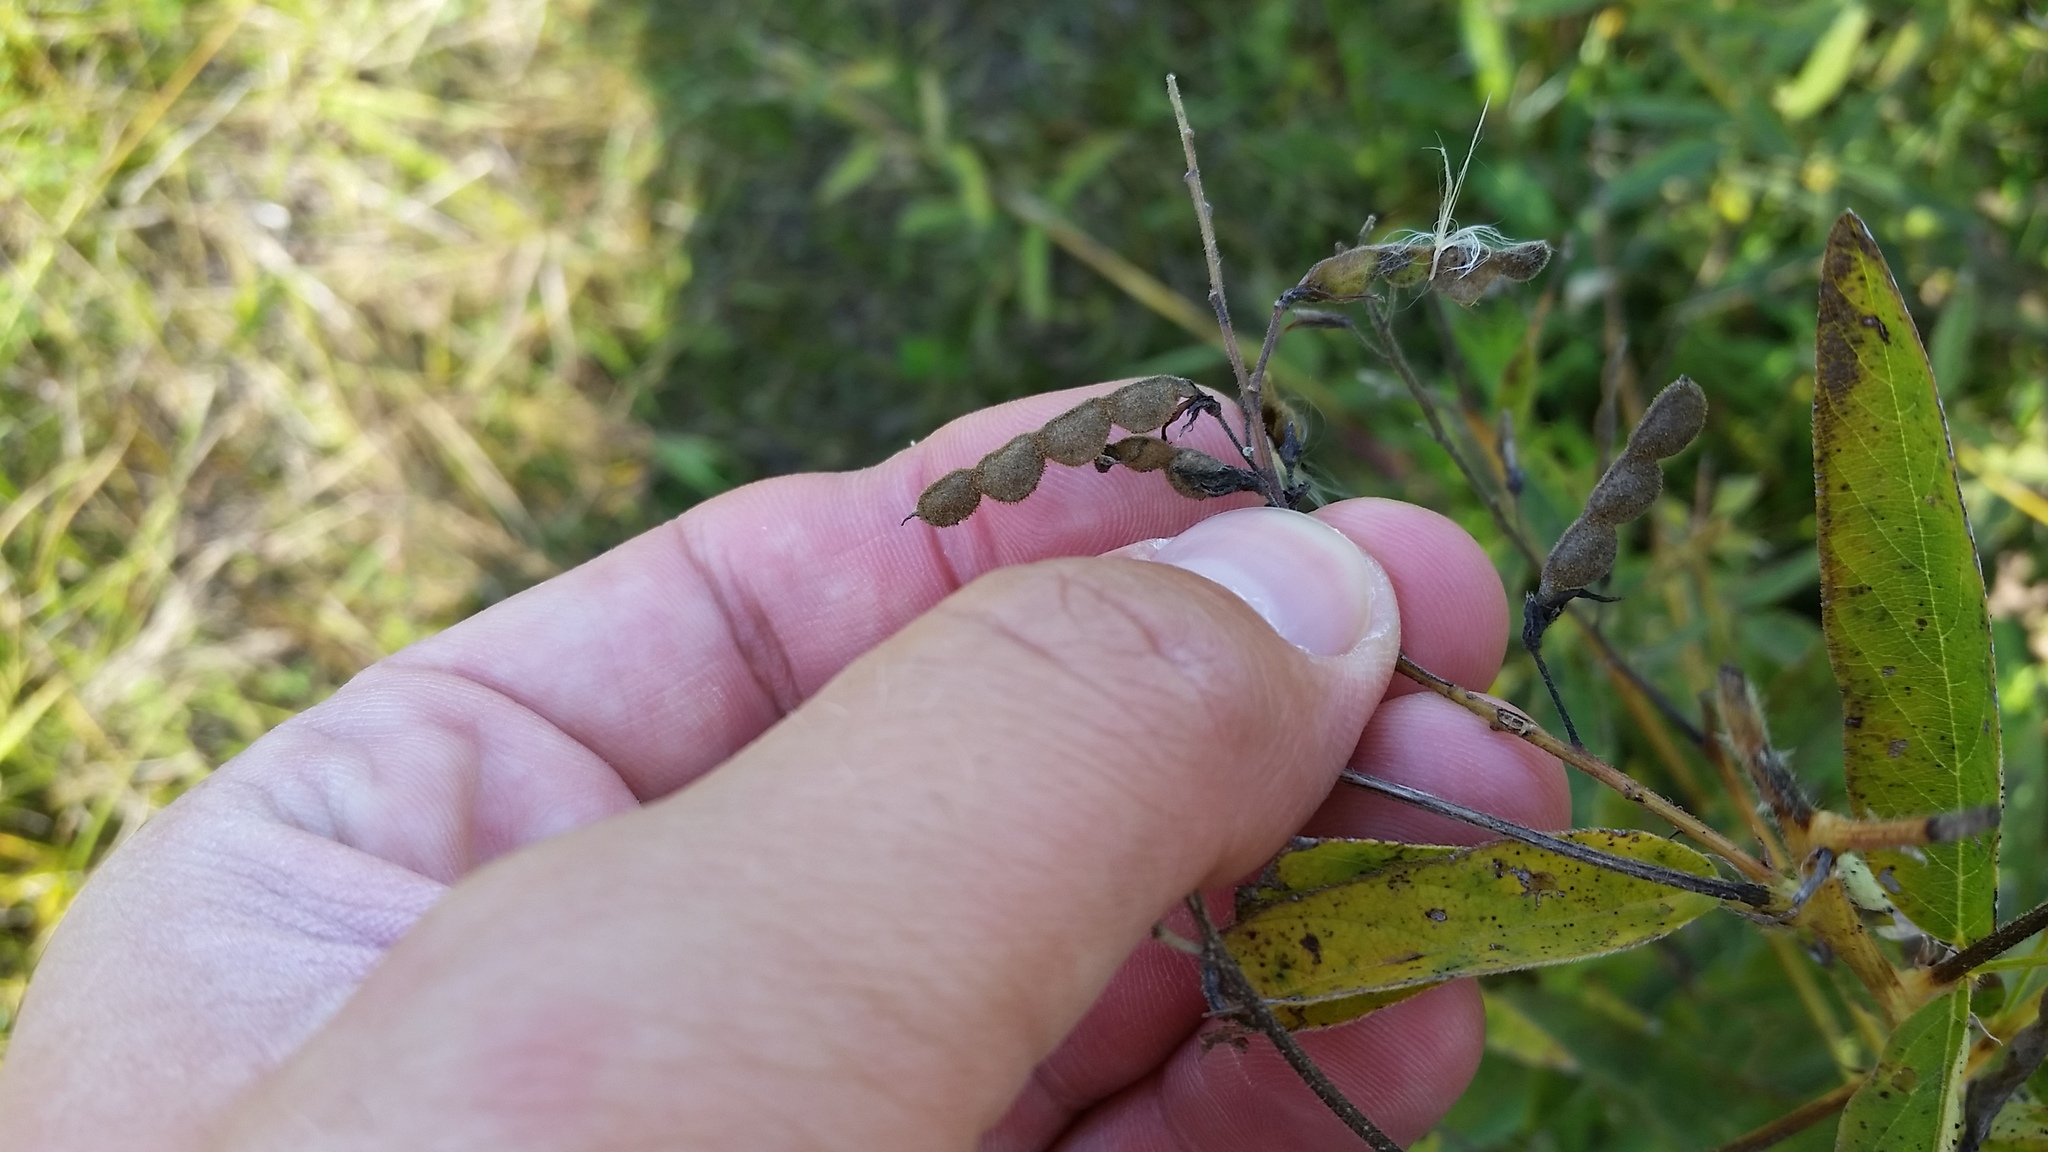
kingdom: Plantae
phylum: Tracheophyta
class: Magnoliopsida
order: Fabales
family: Fabaceae
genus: Desmodium
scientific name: Desmodium sessilifolium
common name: Sessile tick-clover
